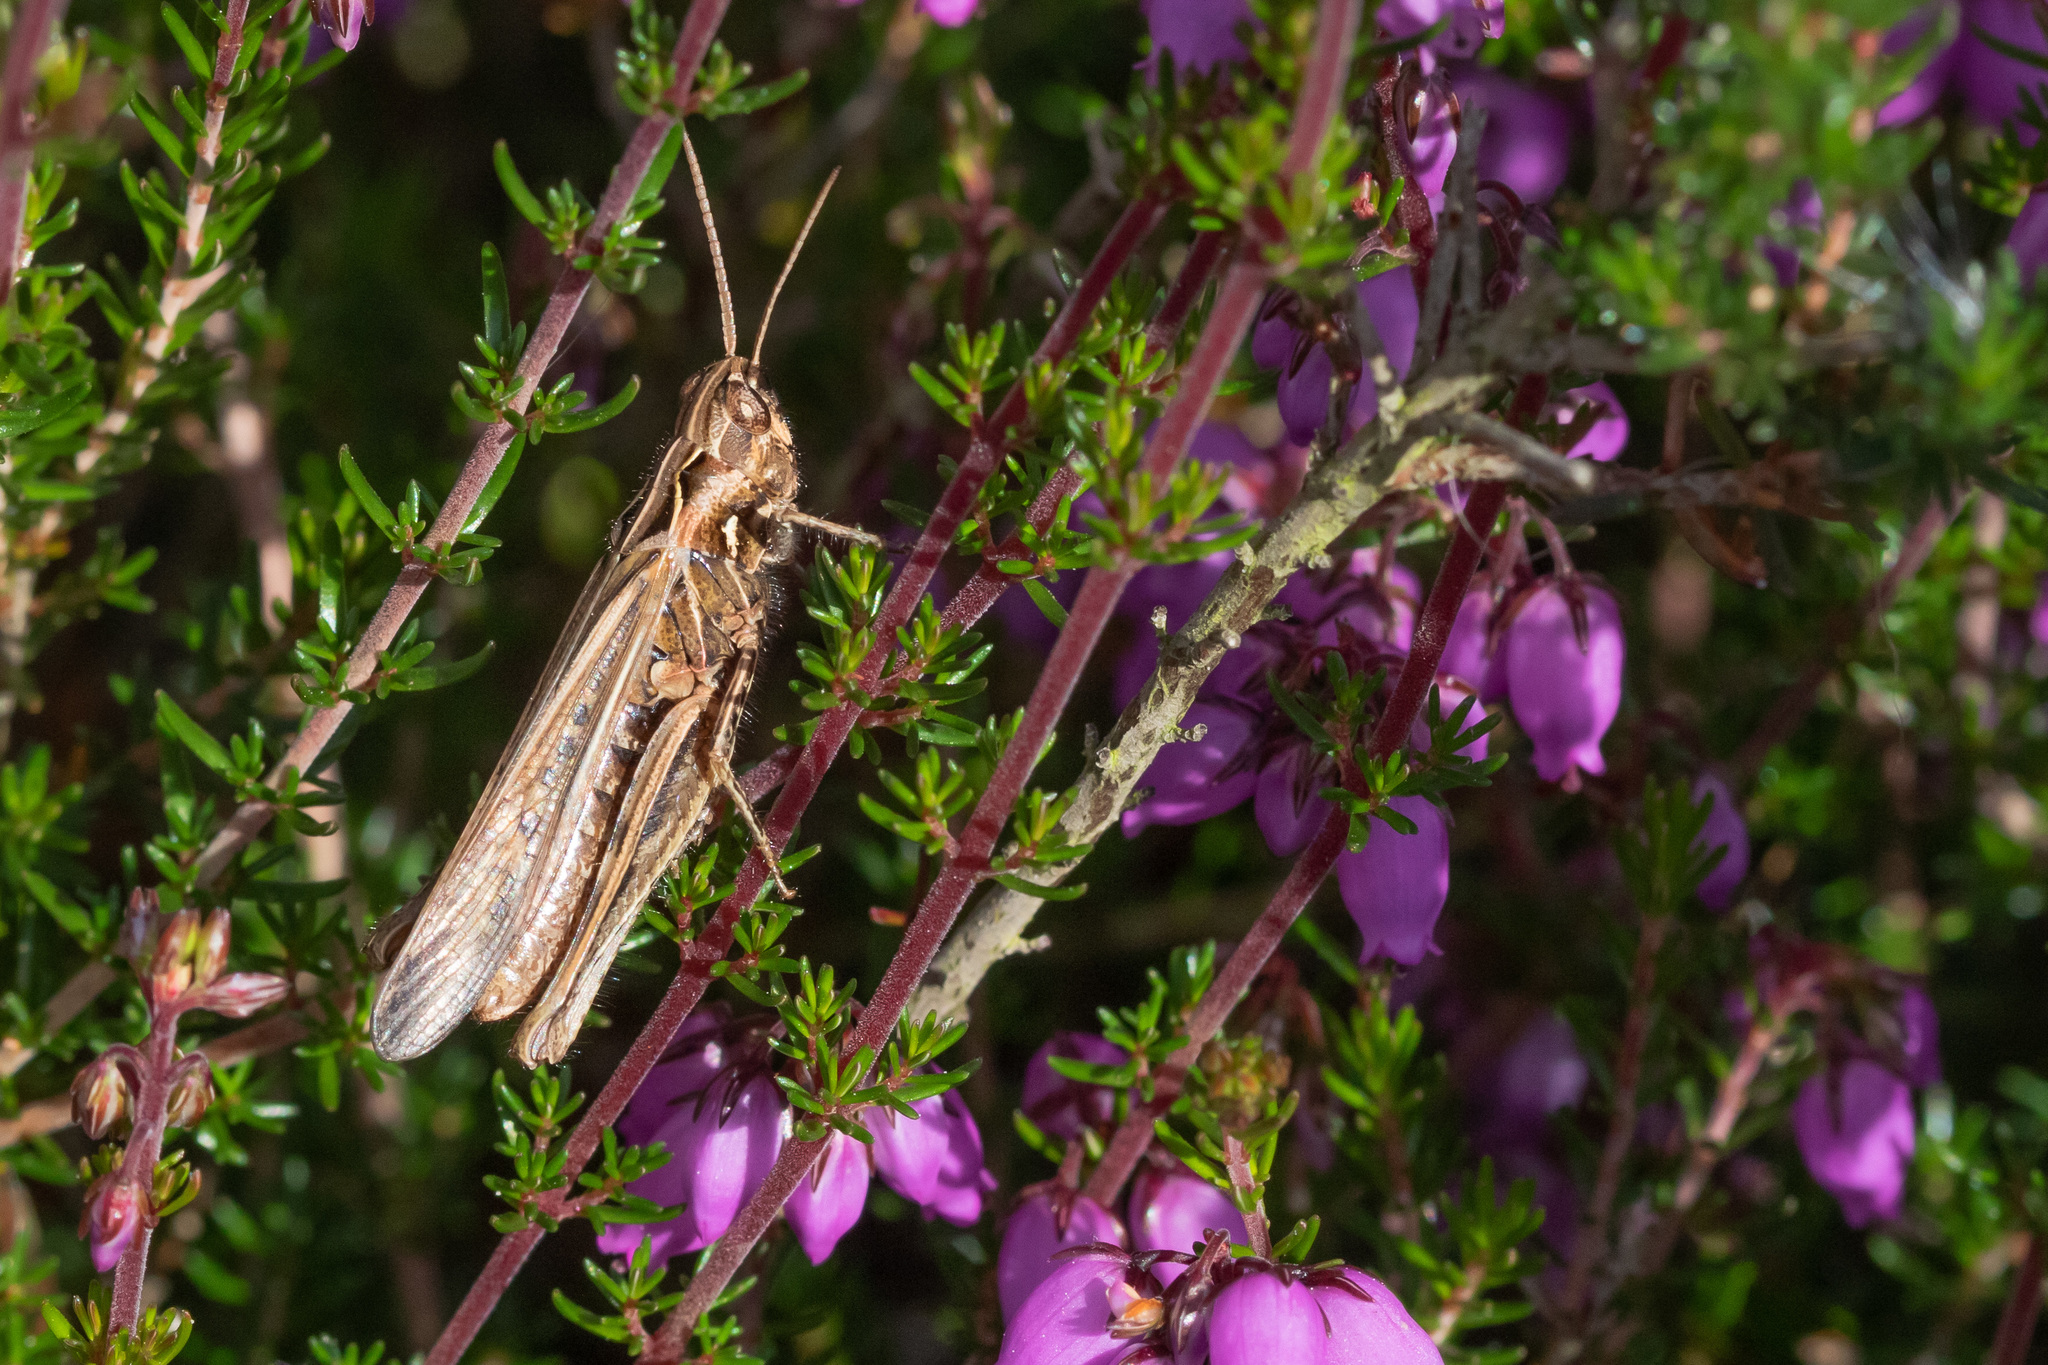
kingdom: Animalia
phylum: Arthropoda
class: Insecta
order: Orthoptera
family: Acrididae
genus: Chorthippus
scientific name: Chorthippus brunneus
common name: Field grasshopper
